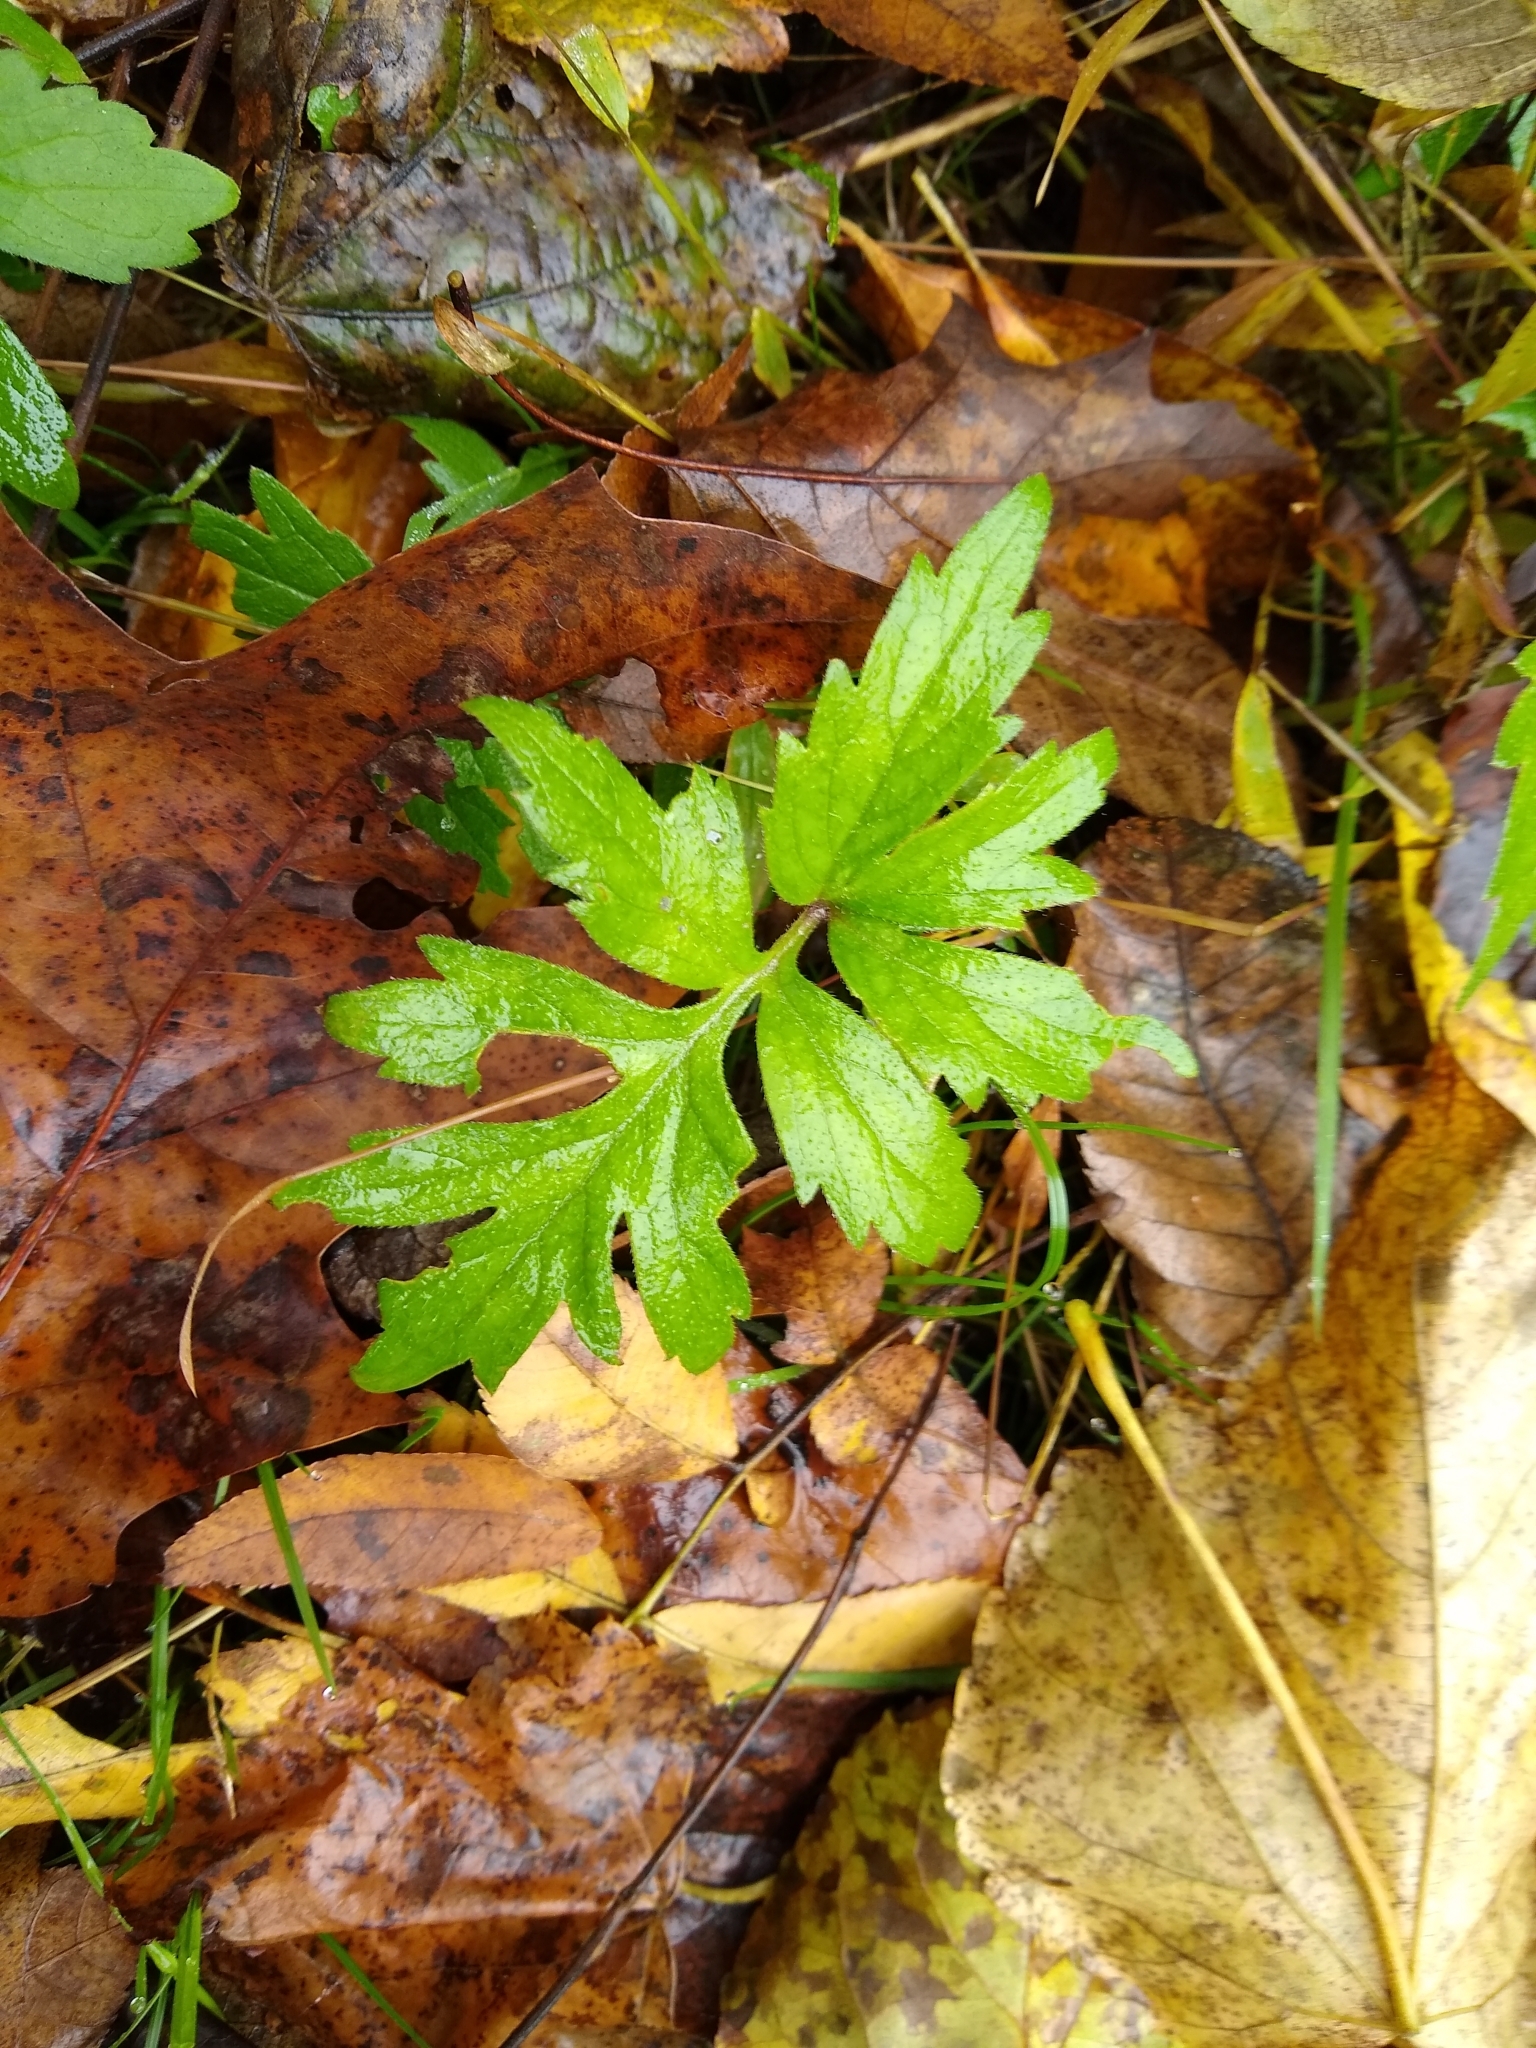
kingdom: Plantae
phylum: Tracheophyta
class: Magnoliopsida
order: Boraginales
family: Hydrophyllaceae
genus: Hydrophyllum
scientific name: Hydrophyllum virginianum
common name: Virginia waterleaf
